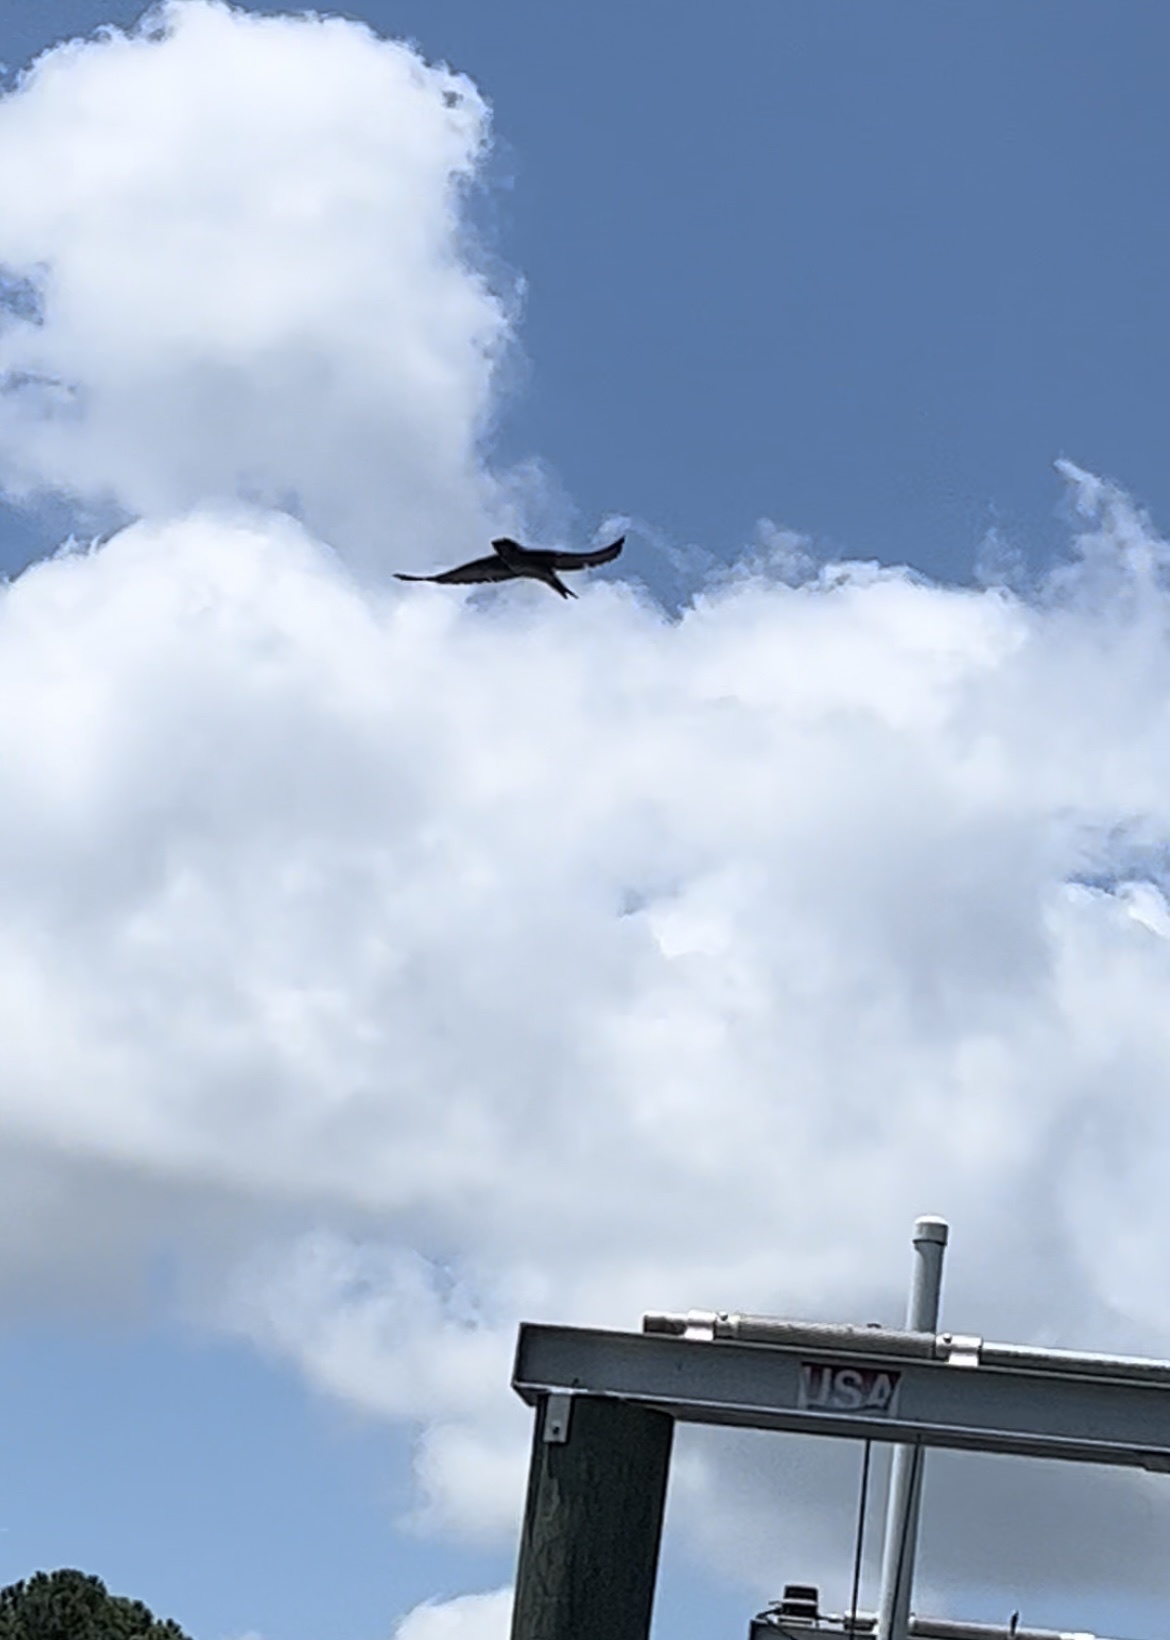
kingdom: Animalia
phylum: Chordata
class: Aves
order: Passeriformes
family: Hirundinidae
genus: Progne
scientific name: Progne subis
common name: Purple martin
